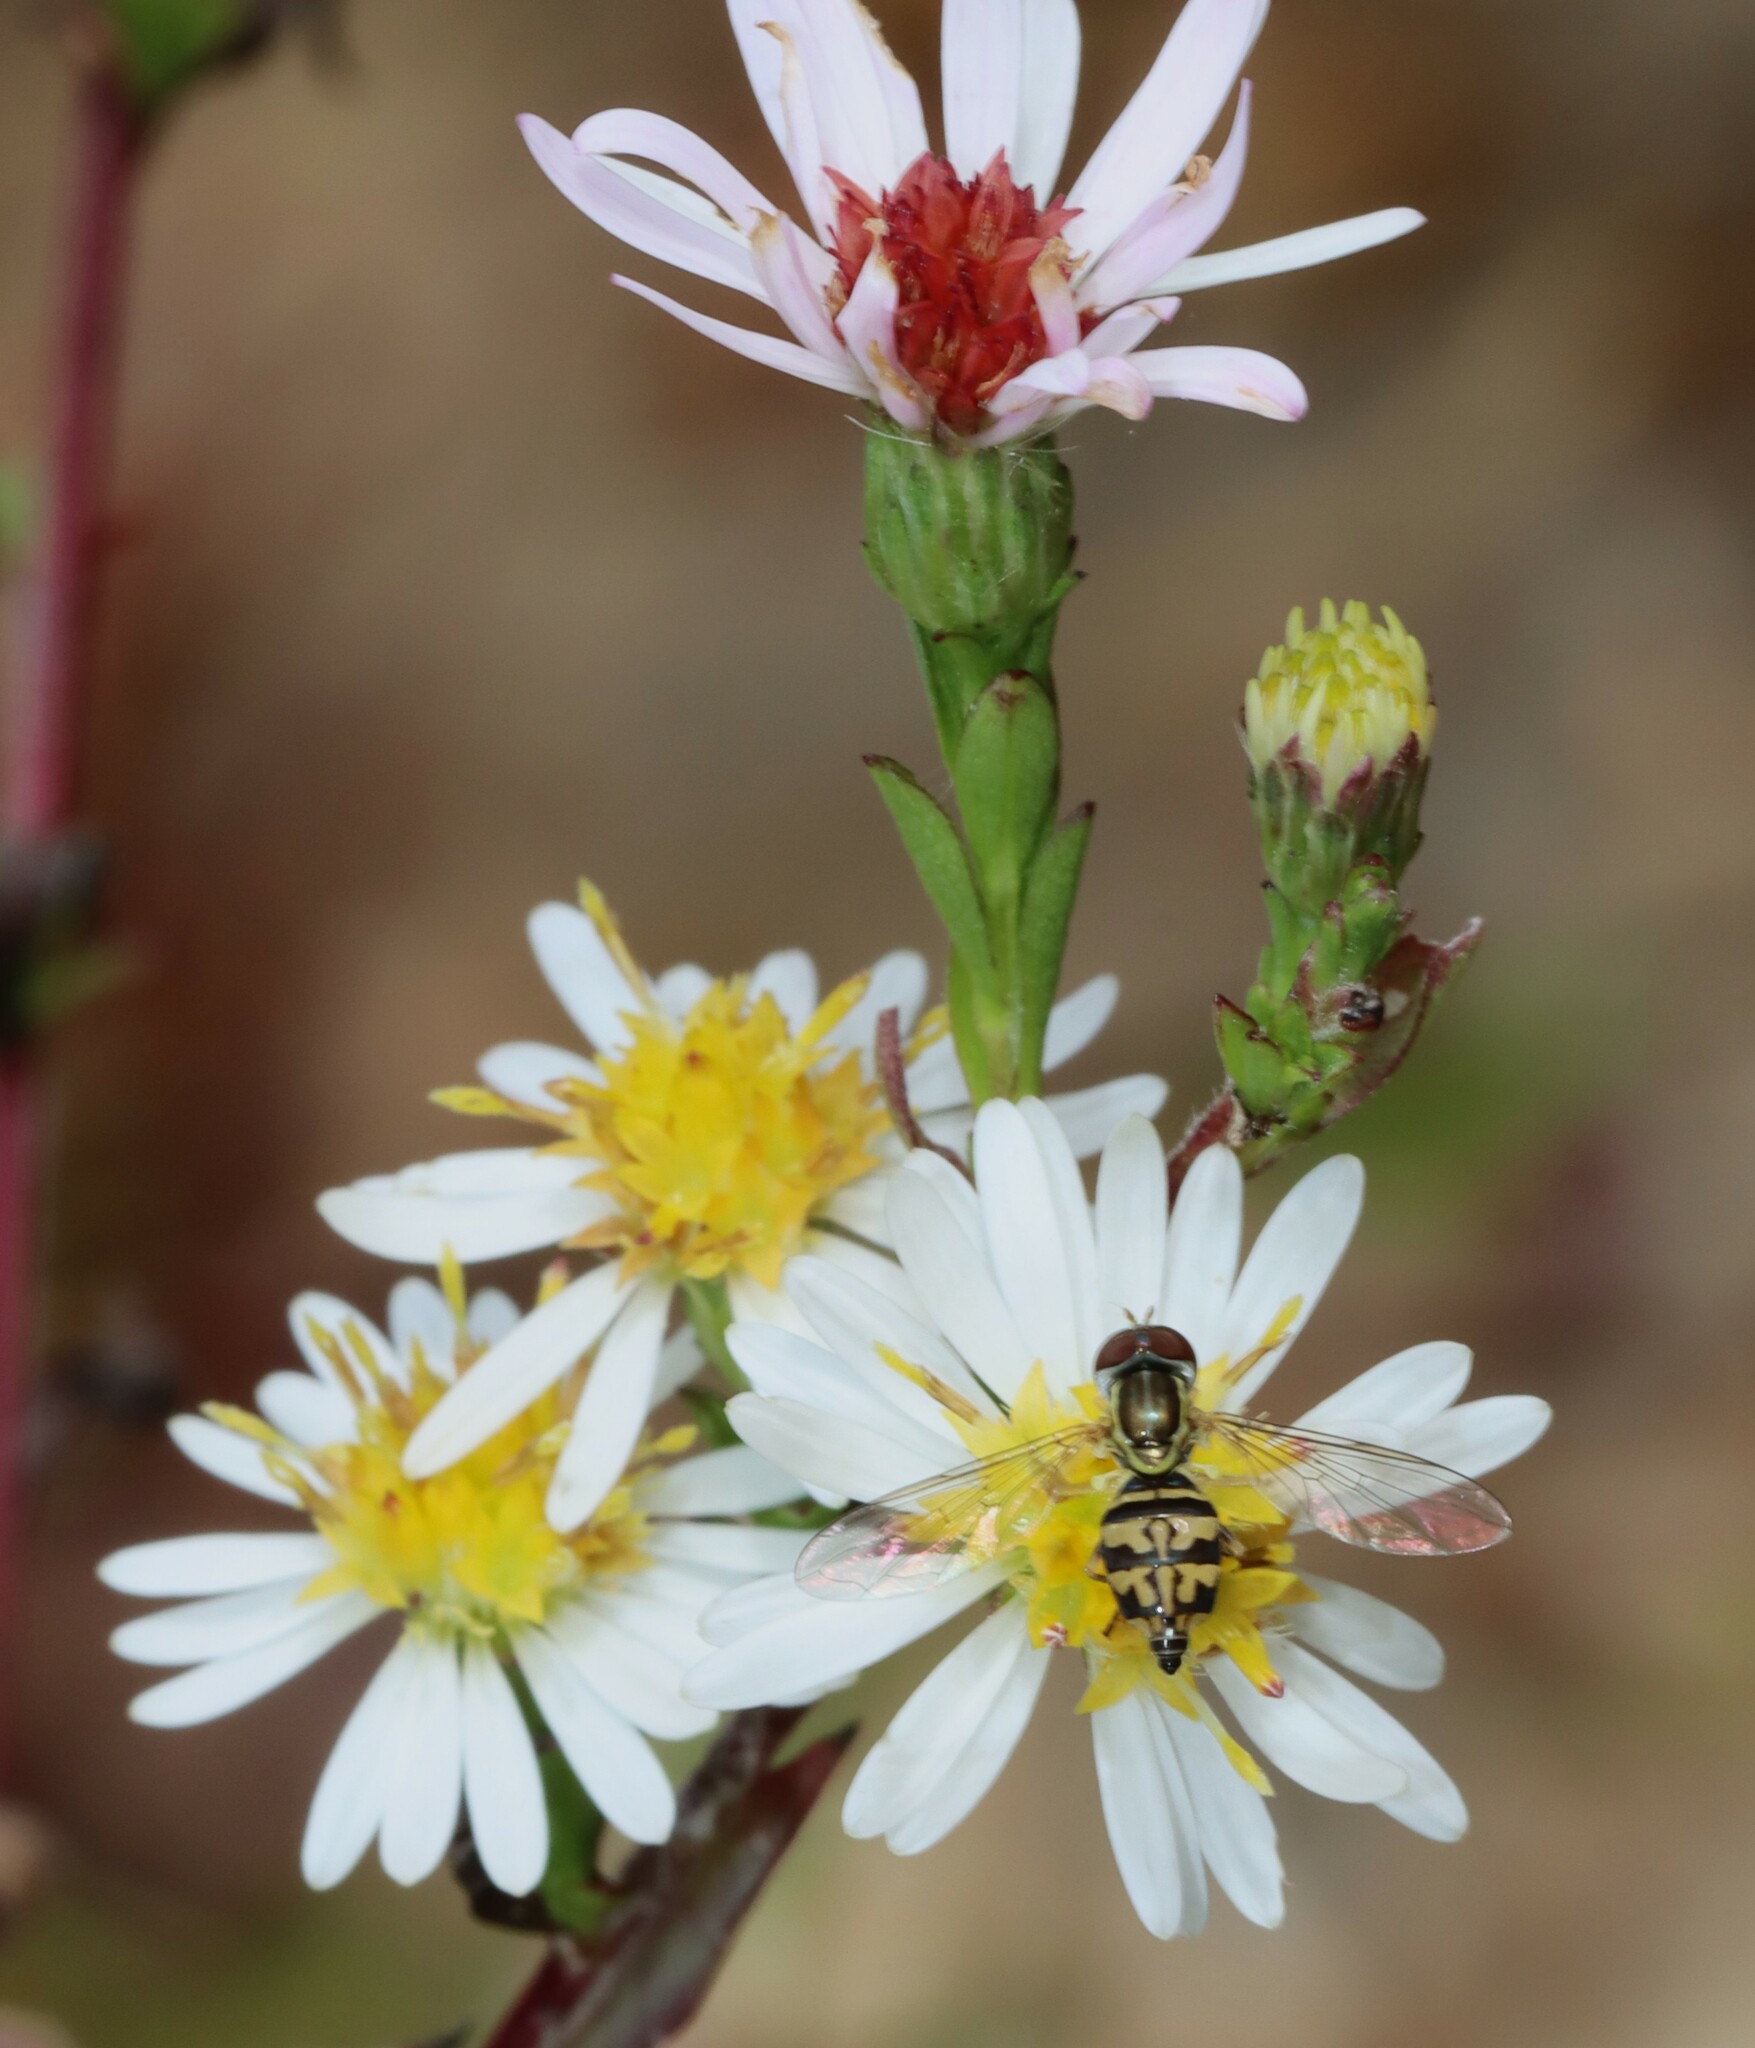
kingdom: Animalia
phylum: Arthropoda
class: Insecta
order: Diptera
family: Syrphidae
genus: Toxomerus
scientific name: Toxomerus geminatus
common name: Eastern calligrapher
